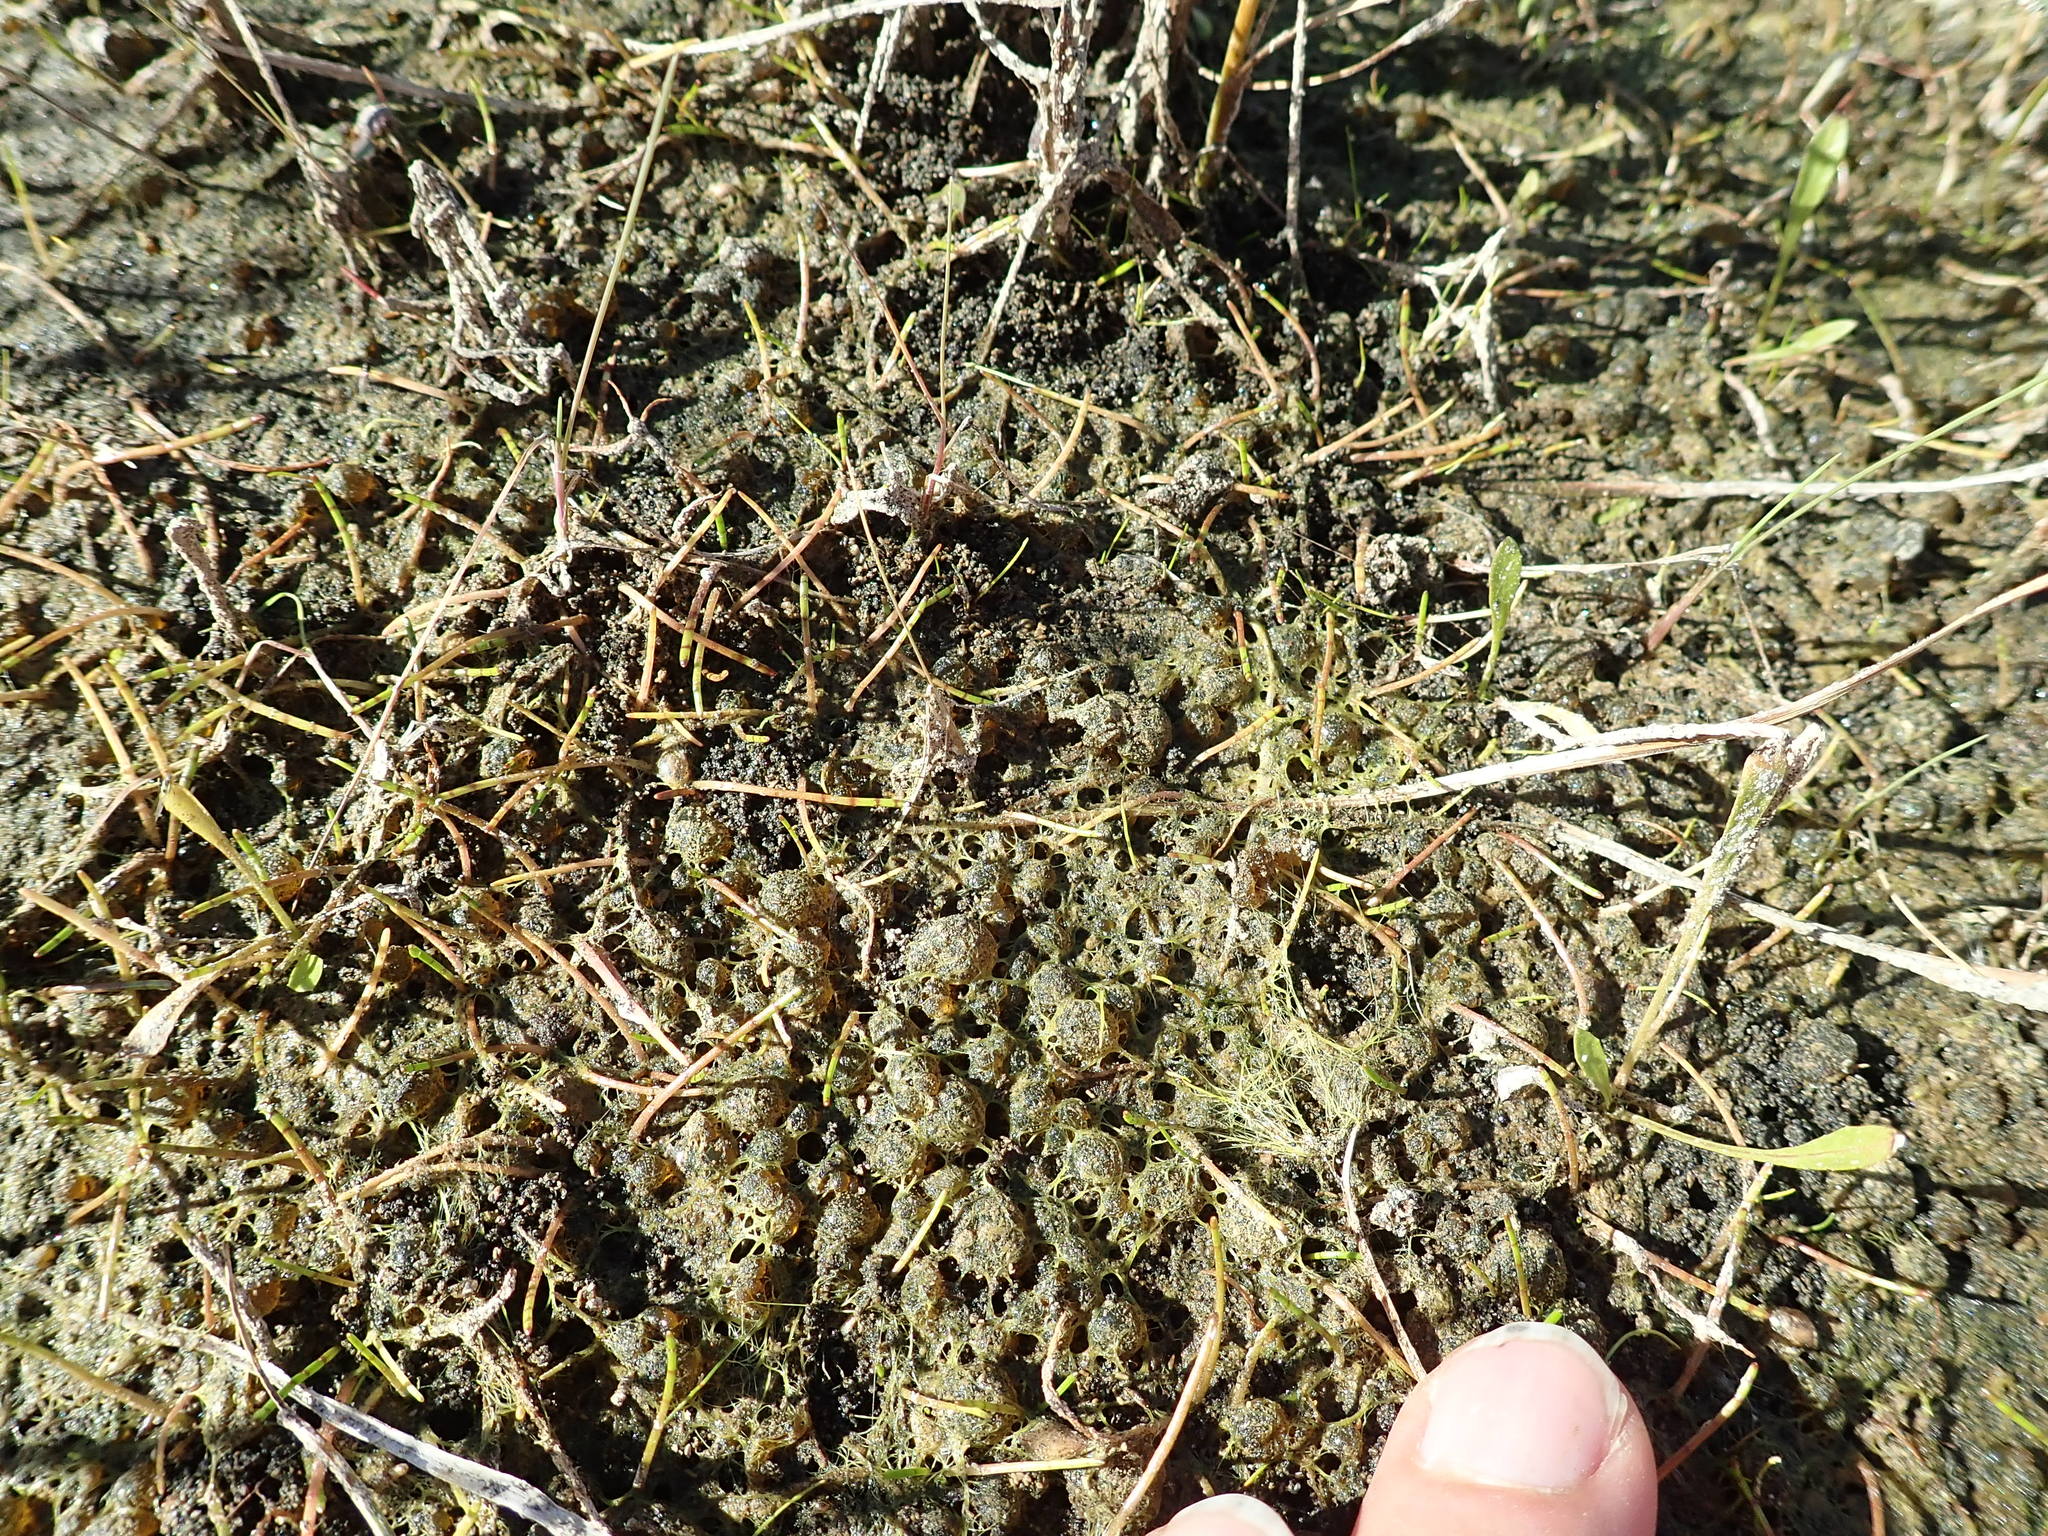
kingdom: Plantae
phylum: Tracheophyta
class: Magnoliopsida
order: Apiales
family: Apiaceae
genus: Lilaeopsis
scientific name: Lilaeopsis novae-zelandiae
